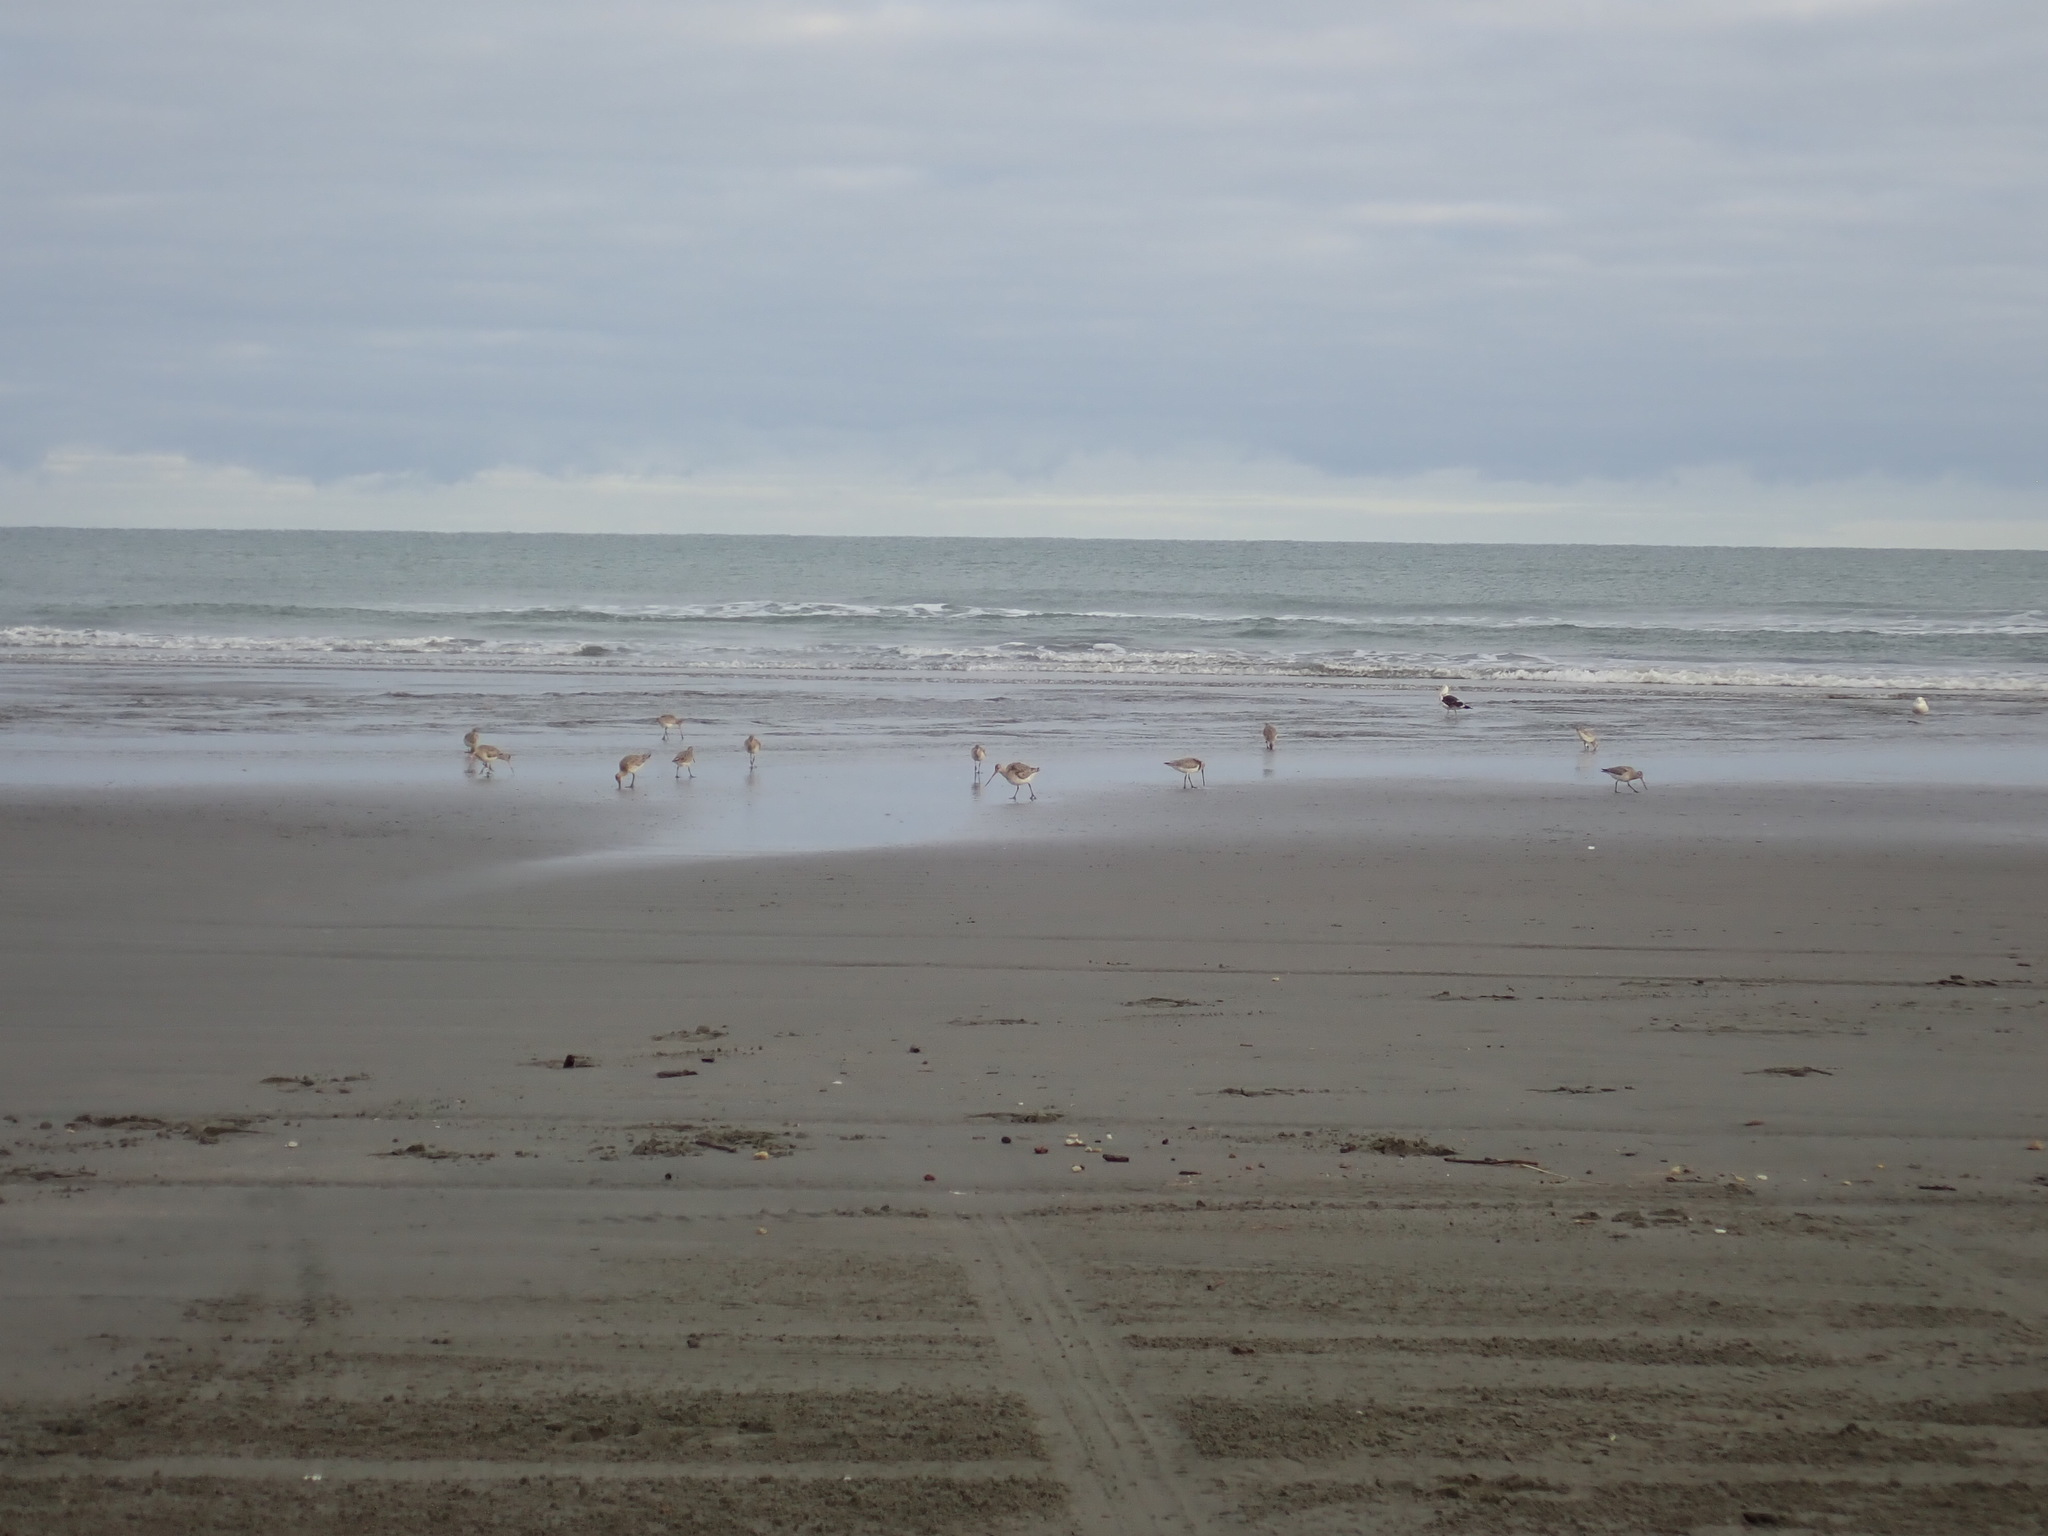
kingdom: Animalia
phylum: Chordata
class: Aves
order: Charadriiformes
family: Scolopacidae
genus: Limosa
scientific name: Limosa lapponica
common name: Bar-tailed godwit
